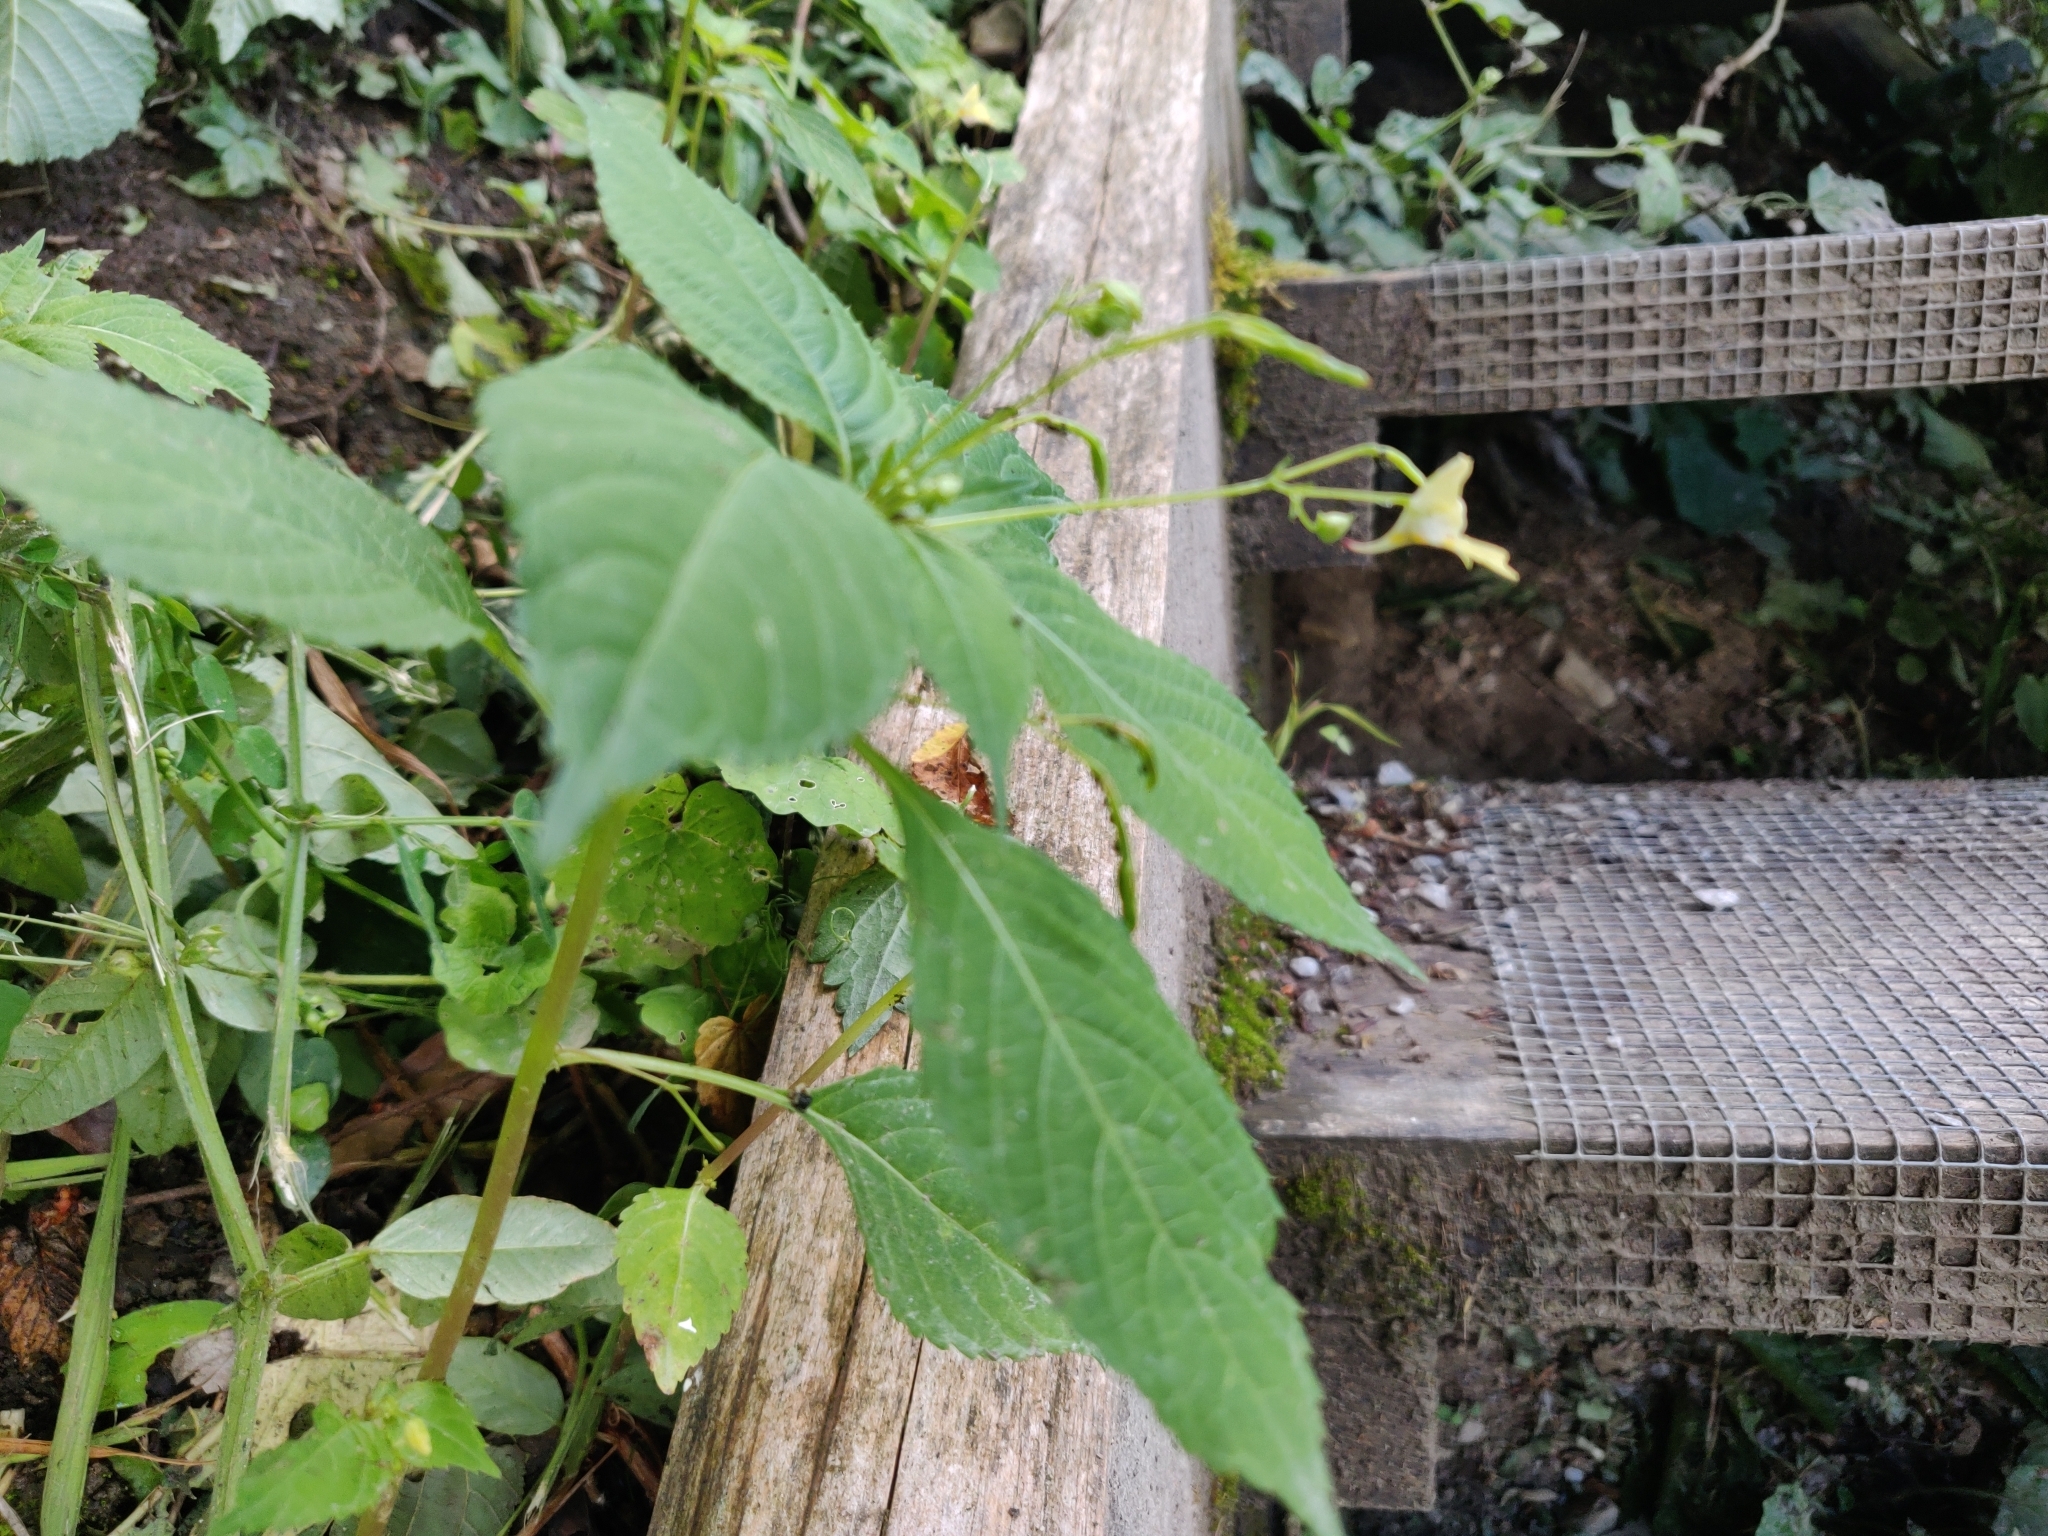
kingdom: Plantae
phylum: Tracheophyta
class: Magnoliopsida
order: Ericales
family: Balsaminaceae
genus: Impatiens
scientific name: Impatiens parviflora
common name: Small balsam
